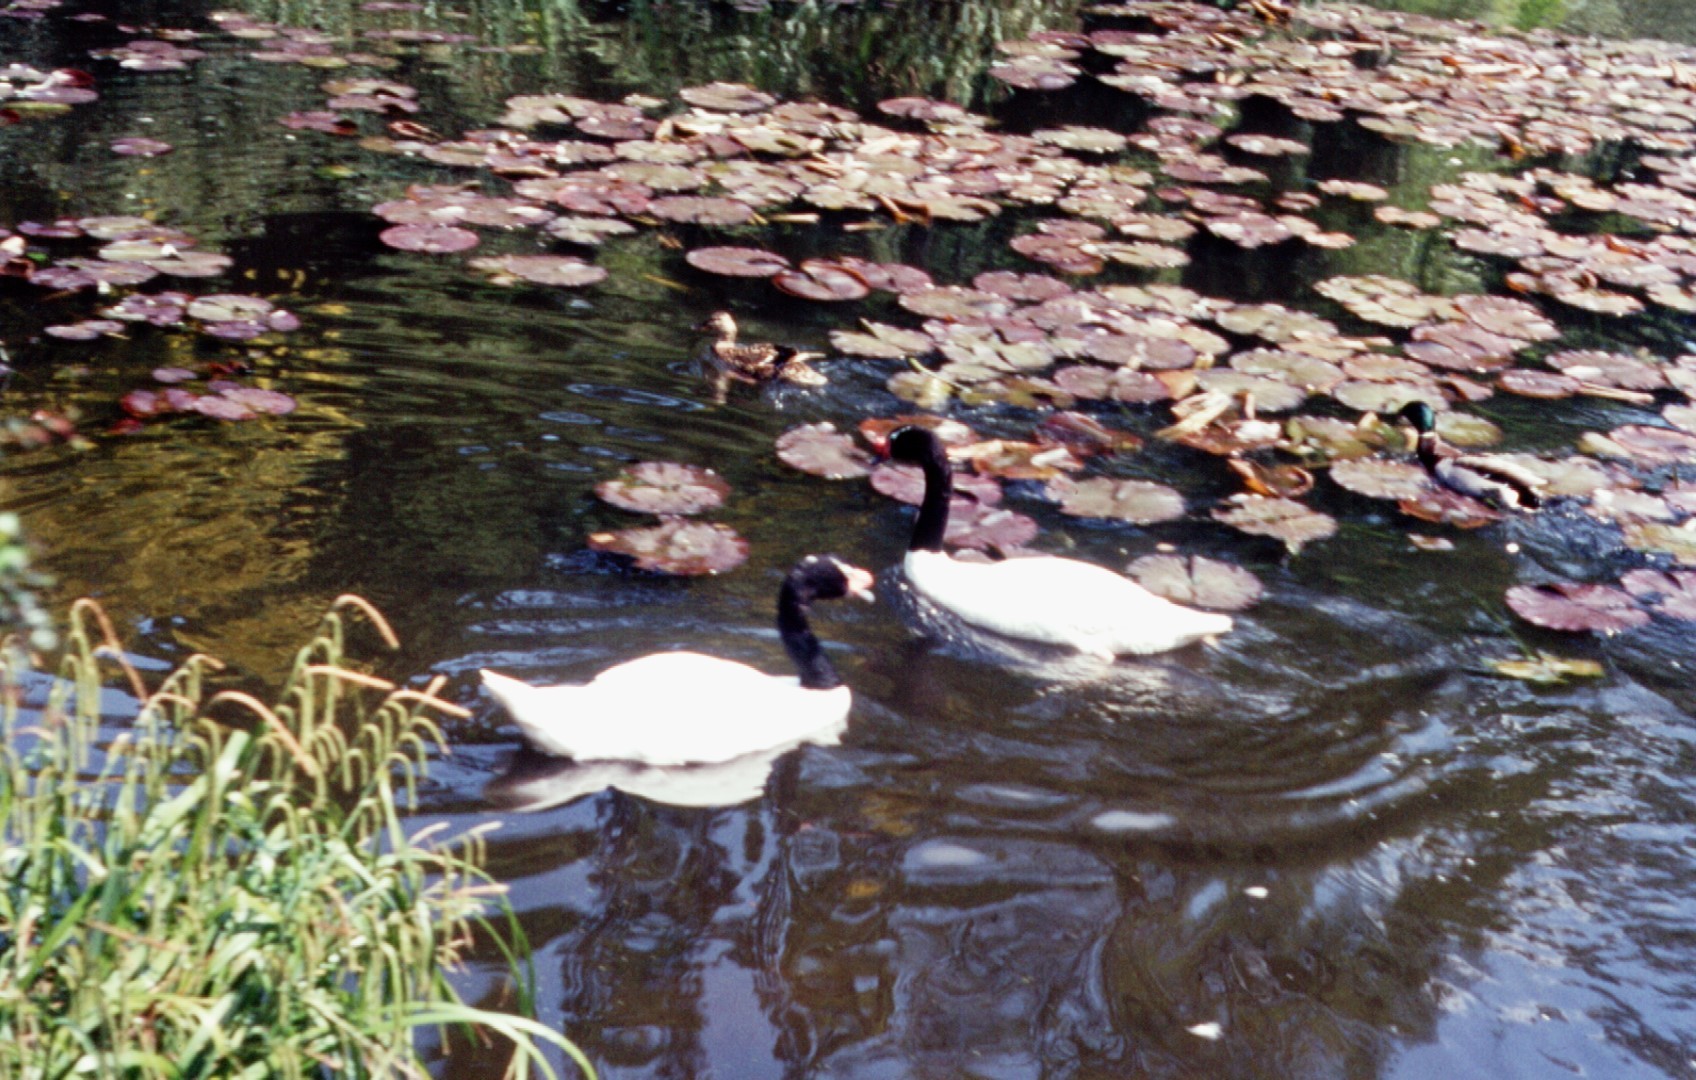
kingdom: Animalia
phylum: Chordata
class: Aves
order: Anseriformes
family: Anatidae
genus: Cygnus
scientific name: Cygnus melancoryphus
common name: Black-necked swan
